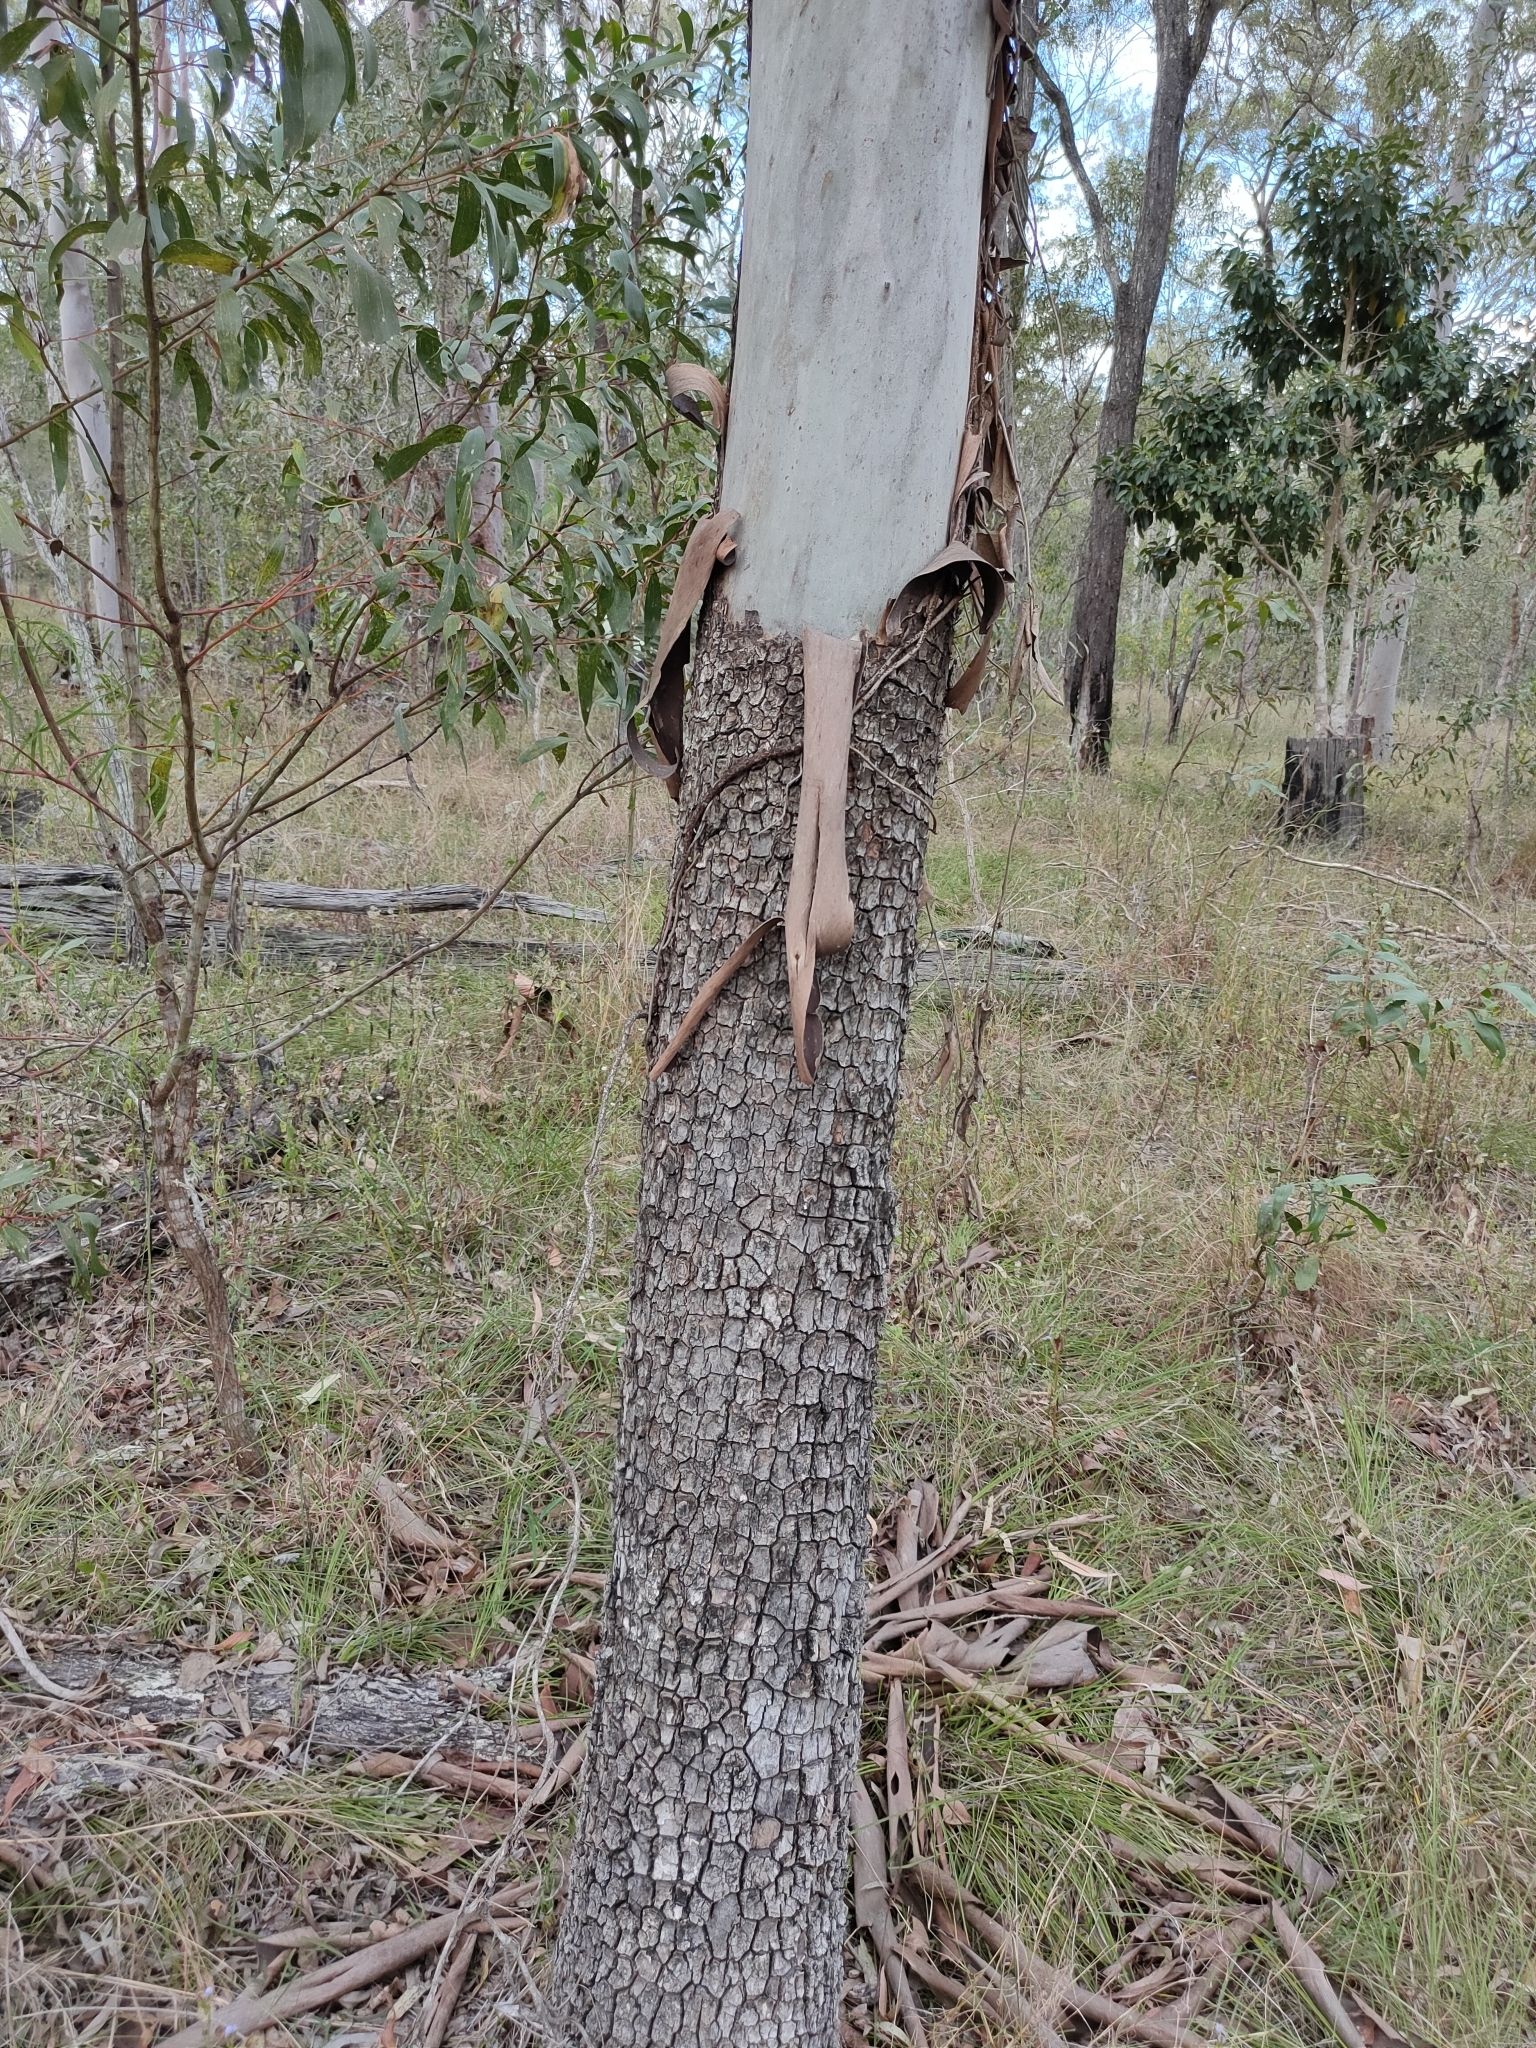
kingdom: Plantae
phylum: Tracheophyta
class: Magnoliopsida
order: Myrtales
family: Myrtaceae
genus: Corymbia
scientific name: Corymbia tessellaris
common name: Carbeen
